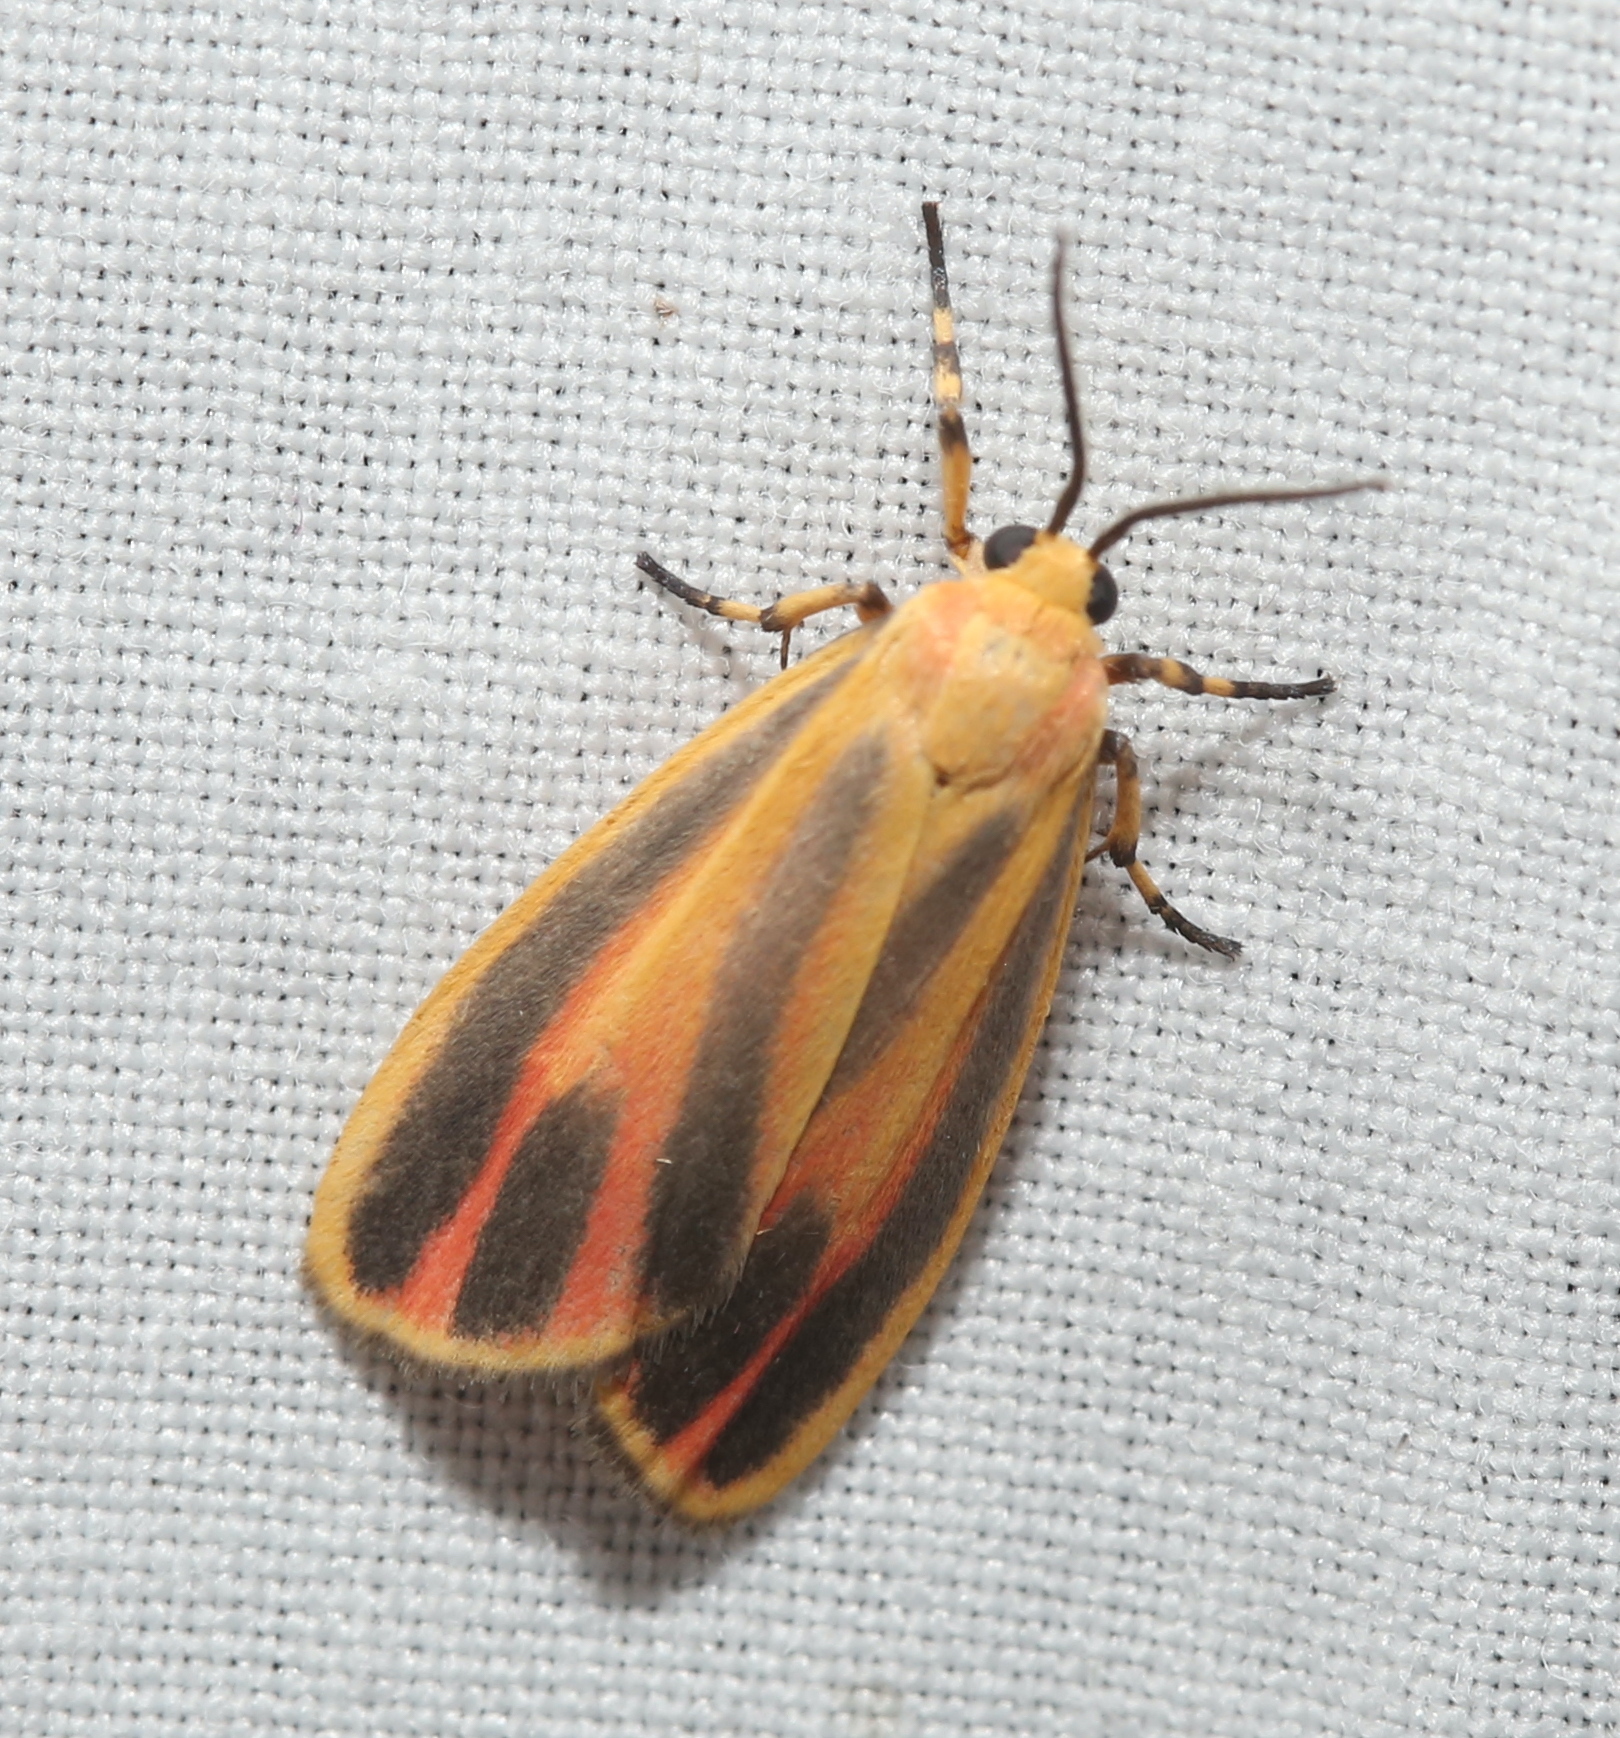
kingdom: Animalia
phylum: Arthropoda
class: Insecta
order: Lepidoptera
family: Erebidae
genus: Hypoprepia
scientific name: Hypoprepia fucosa
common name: Painted lichen moth
